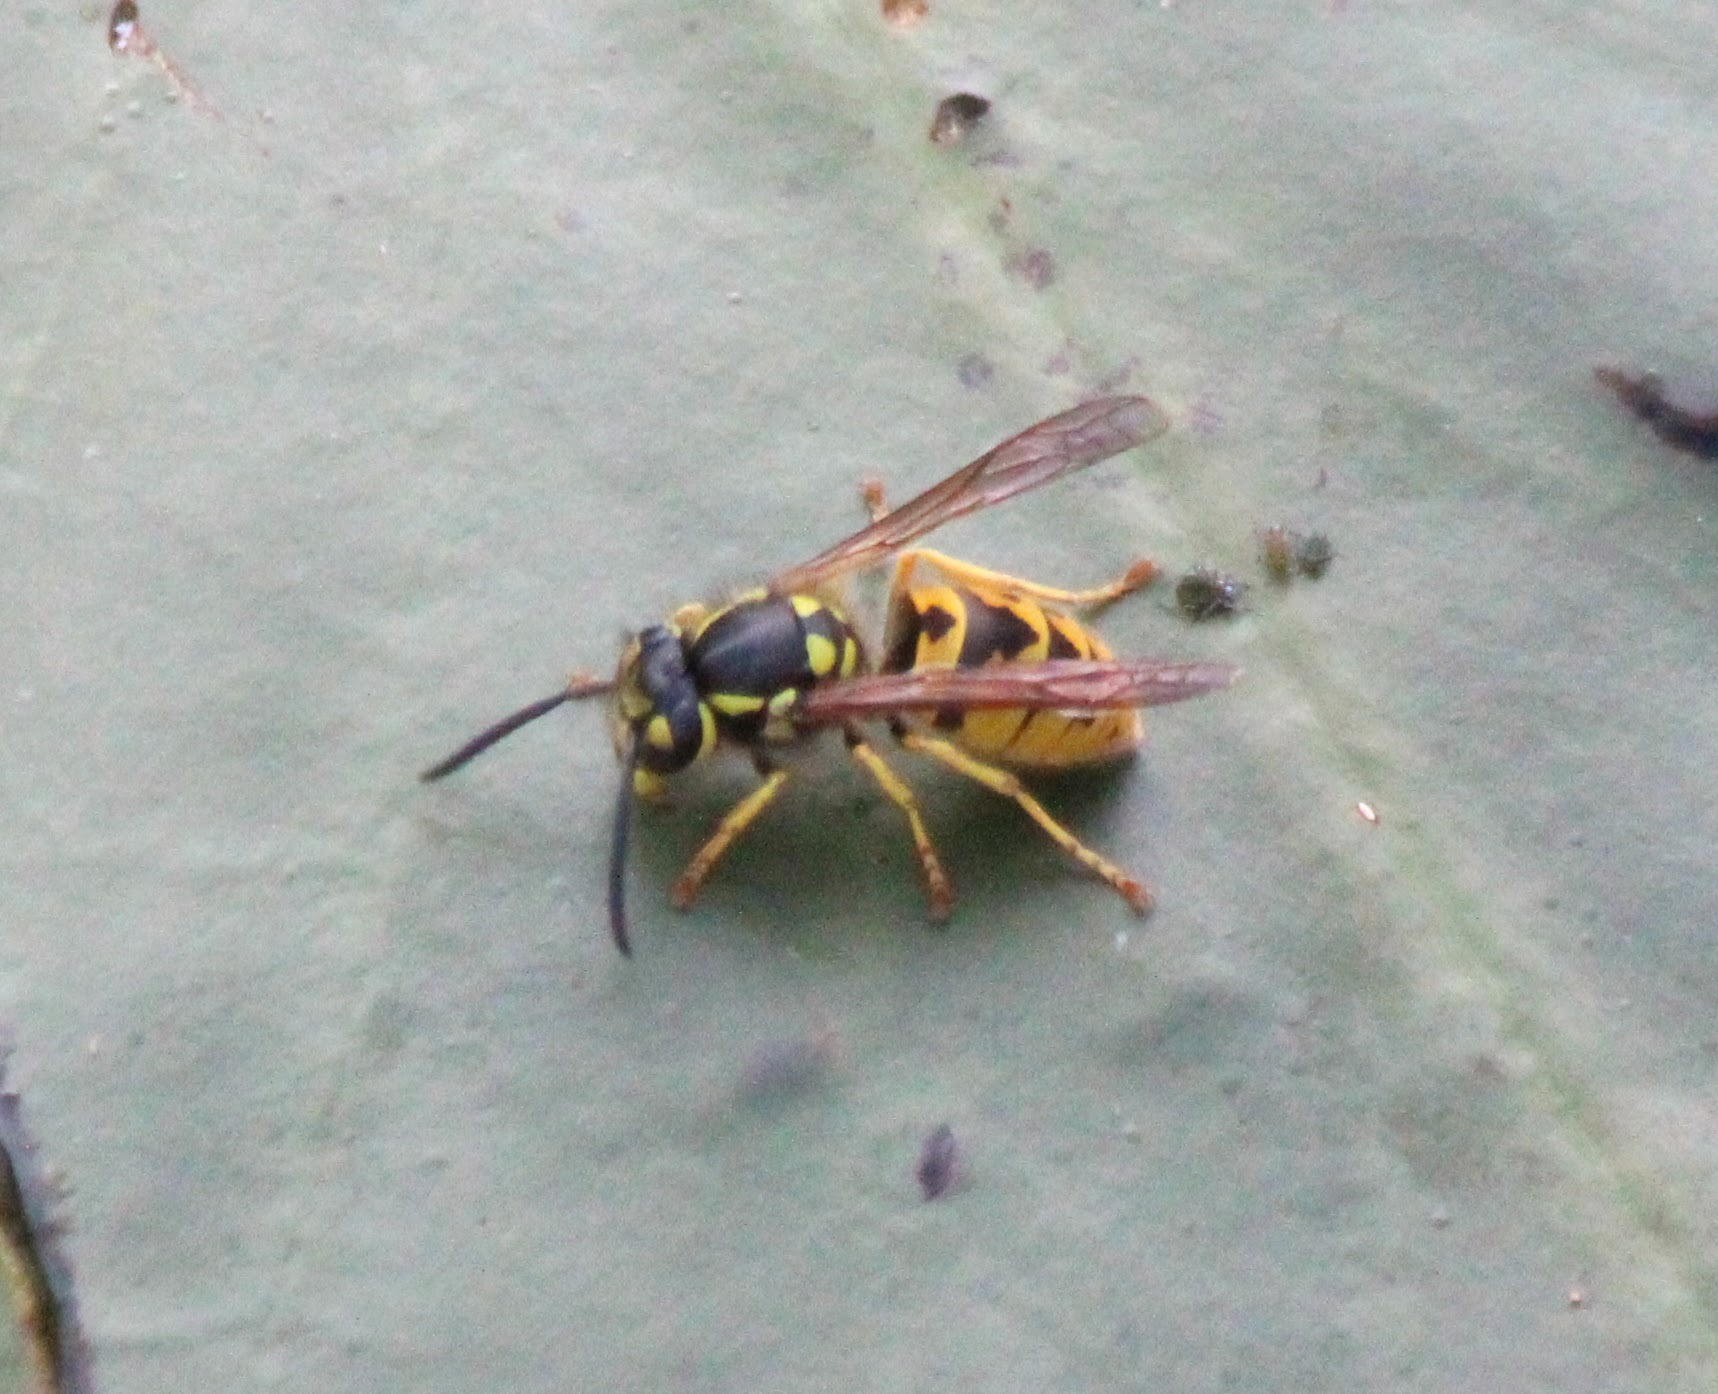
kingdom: Animalia
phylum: Arthropoda
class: Insecta
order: Hymenoptera
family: Vespidae
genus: Vespula
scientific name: Vespula germanica
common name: German wasp
